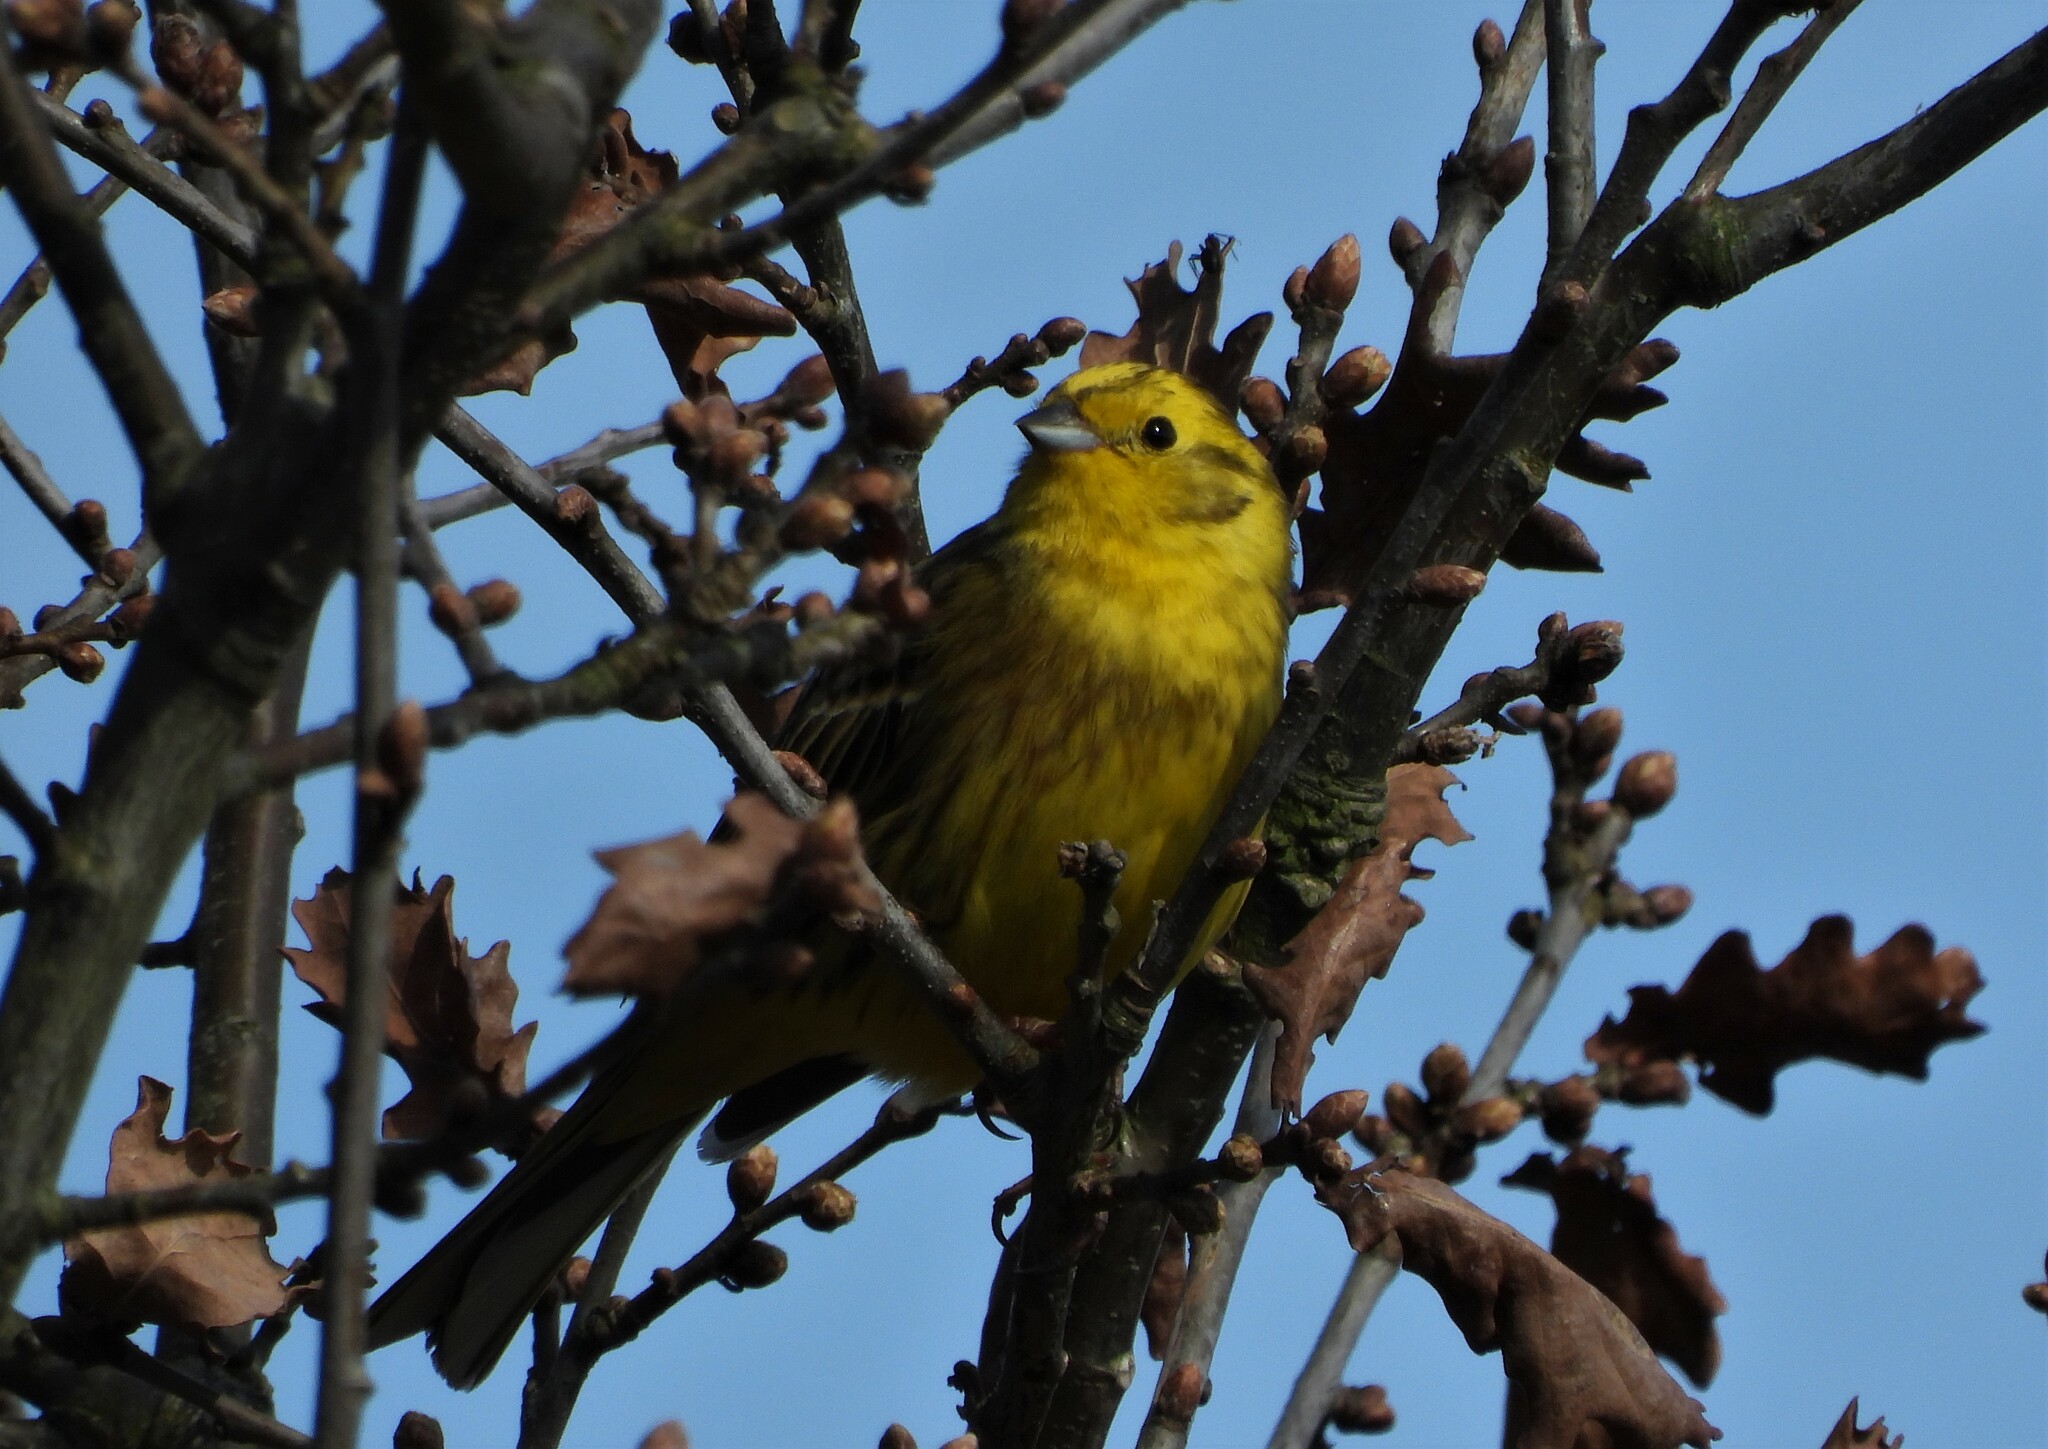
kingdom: Animalia
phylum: Chordata
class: Aves
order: Passeriformes
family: Emberizidae
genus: Emberiza
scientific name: Emberiza citrinella
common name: Yellowhammer
